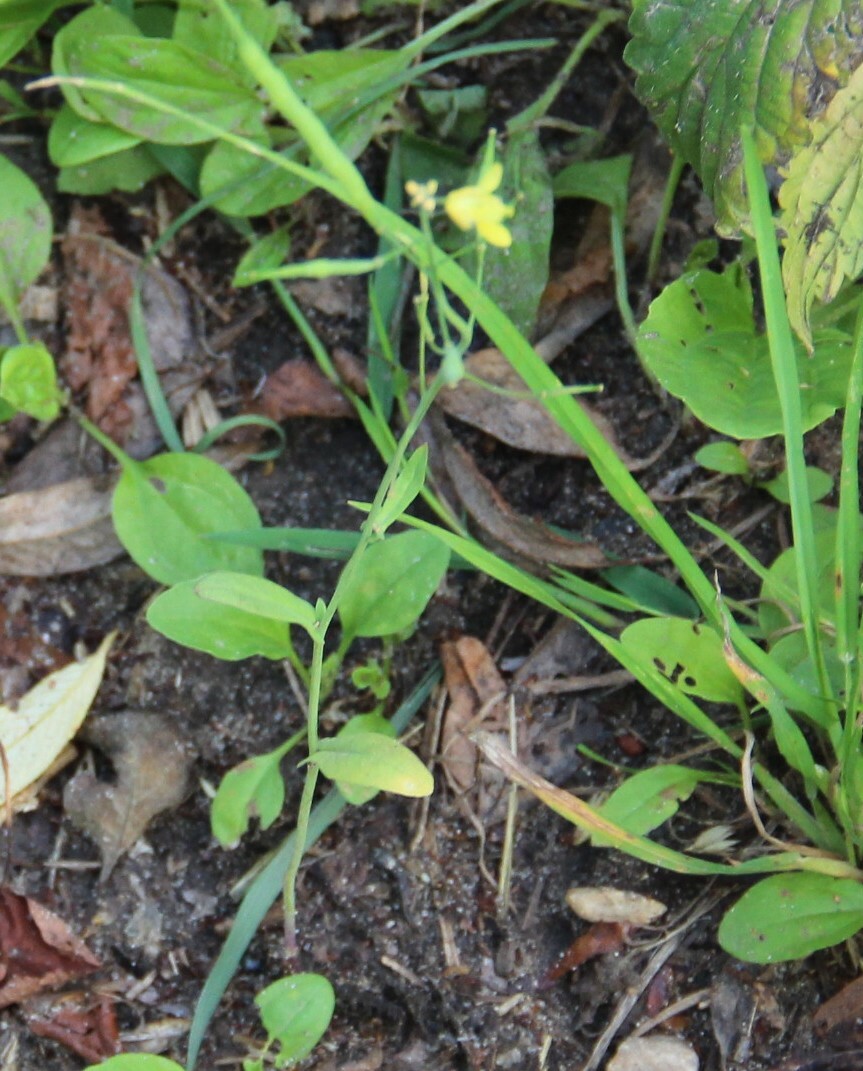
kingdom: Plantae
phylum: Tracheophyta
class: Magnoliopsida
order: Brassicales
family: Brassicaceae
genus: Brassica
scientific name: Brassica rapa
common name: Field mustard
